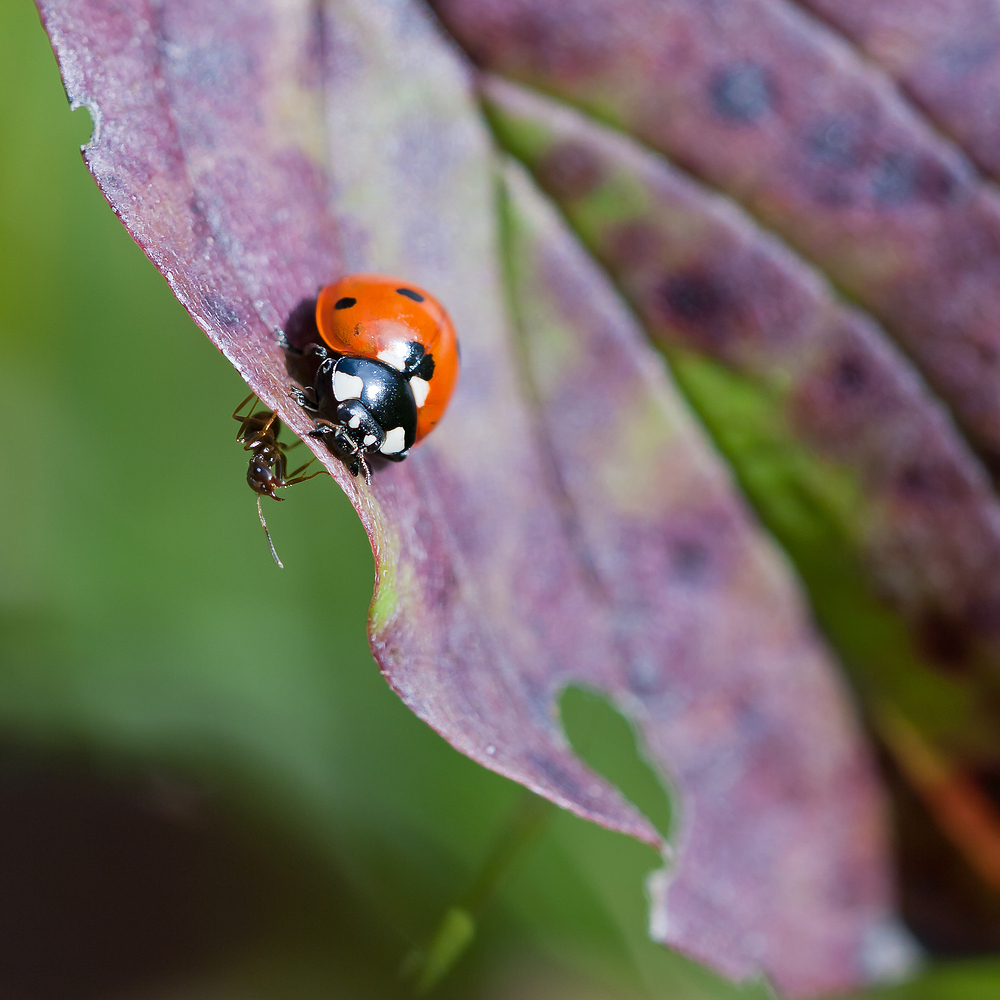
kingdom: Animalia
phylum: Arthropoda
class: Insecta
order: Coleoptera
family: Coccinellidae
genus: Coccinella
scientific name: Coccinella septempunctata
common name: Sevenspotted lady beetle
